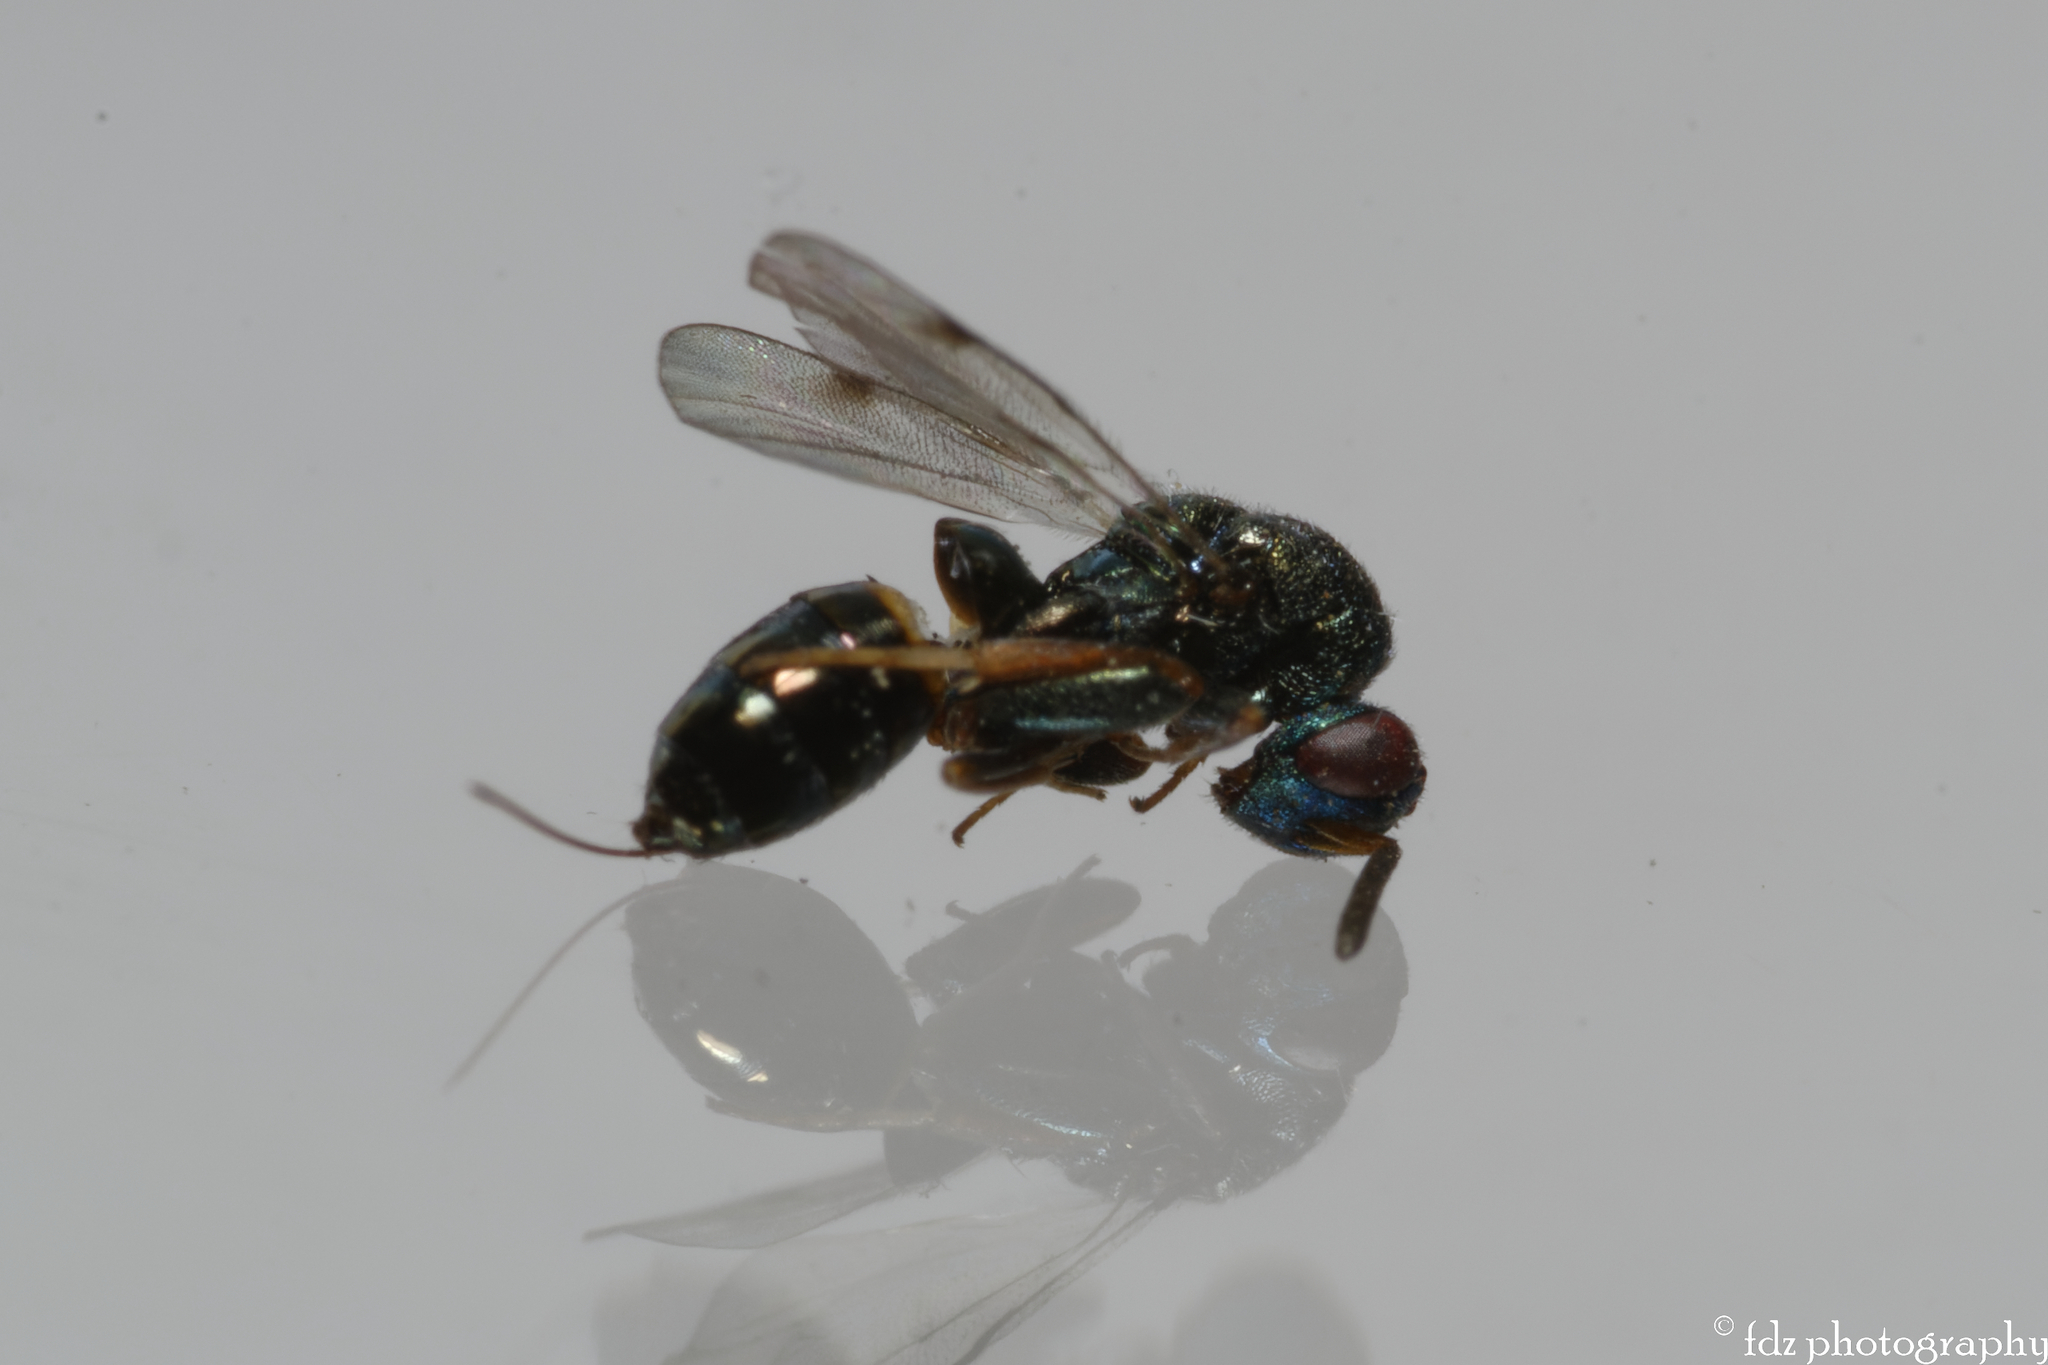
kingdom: Animalia
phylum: Arthropoda
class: Insecta
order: Hymenoptera
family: Torymidae
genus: Monodontomerus
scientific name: Monodontomerus rugulosus
